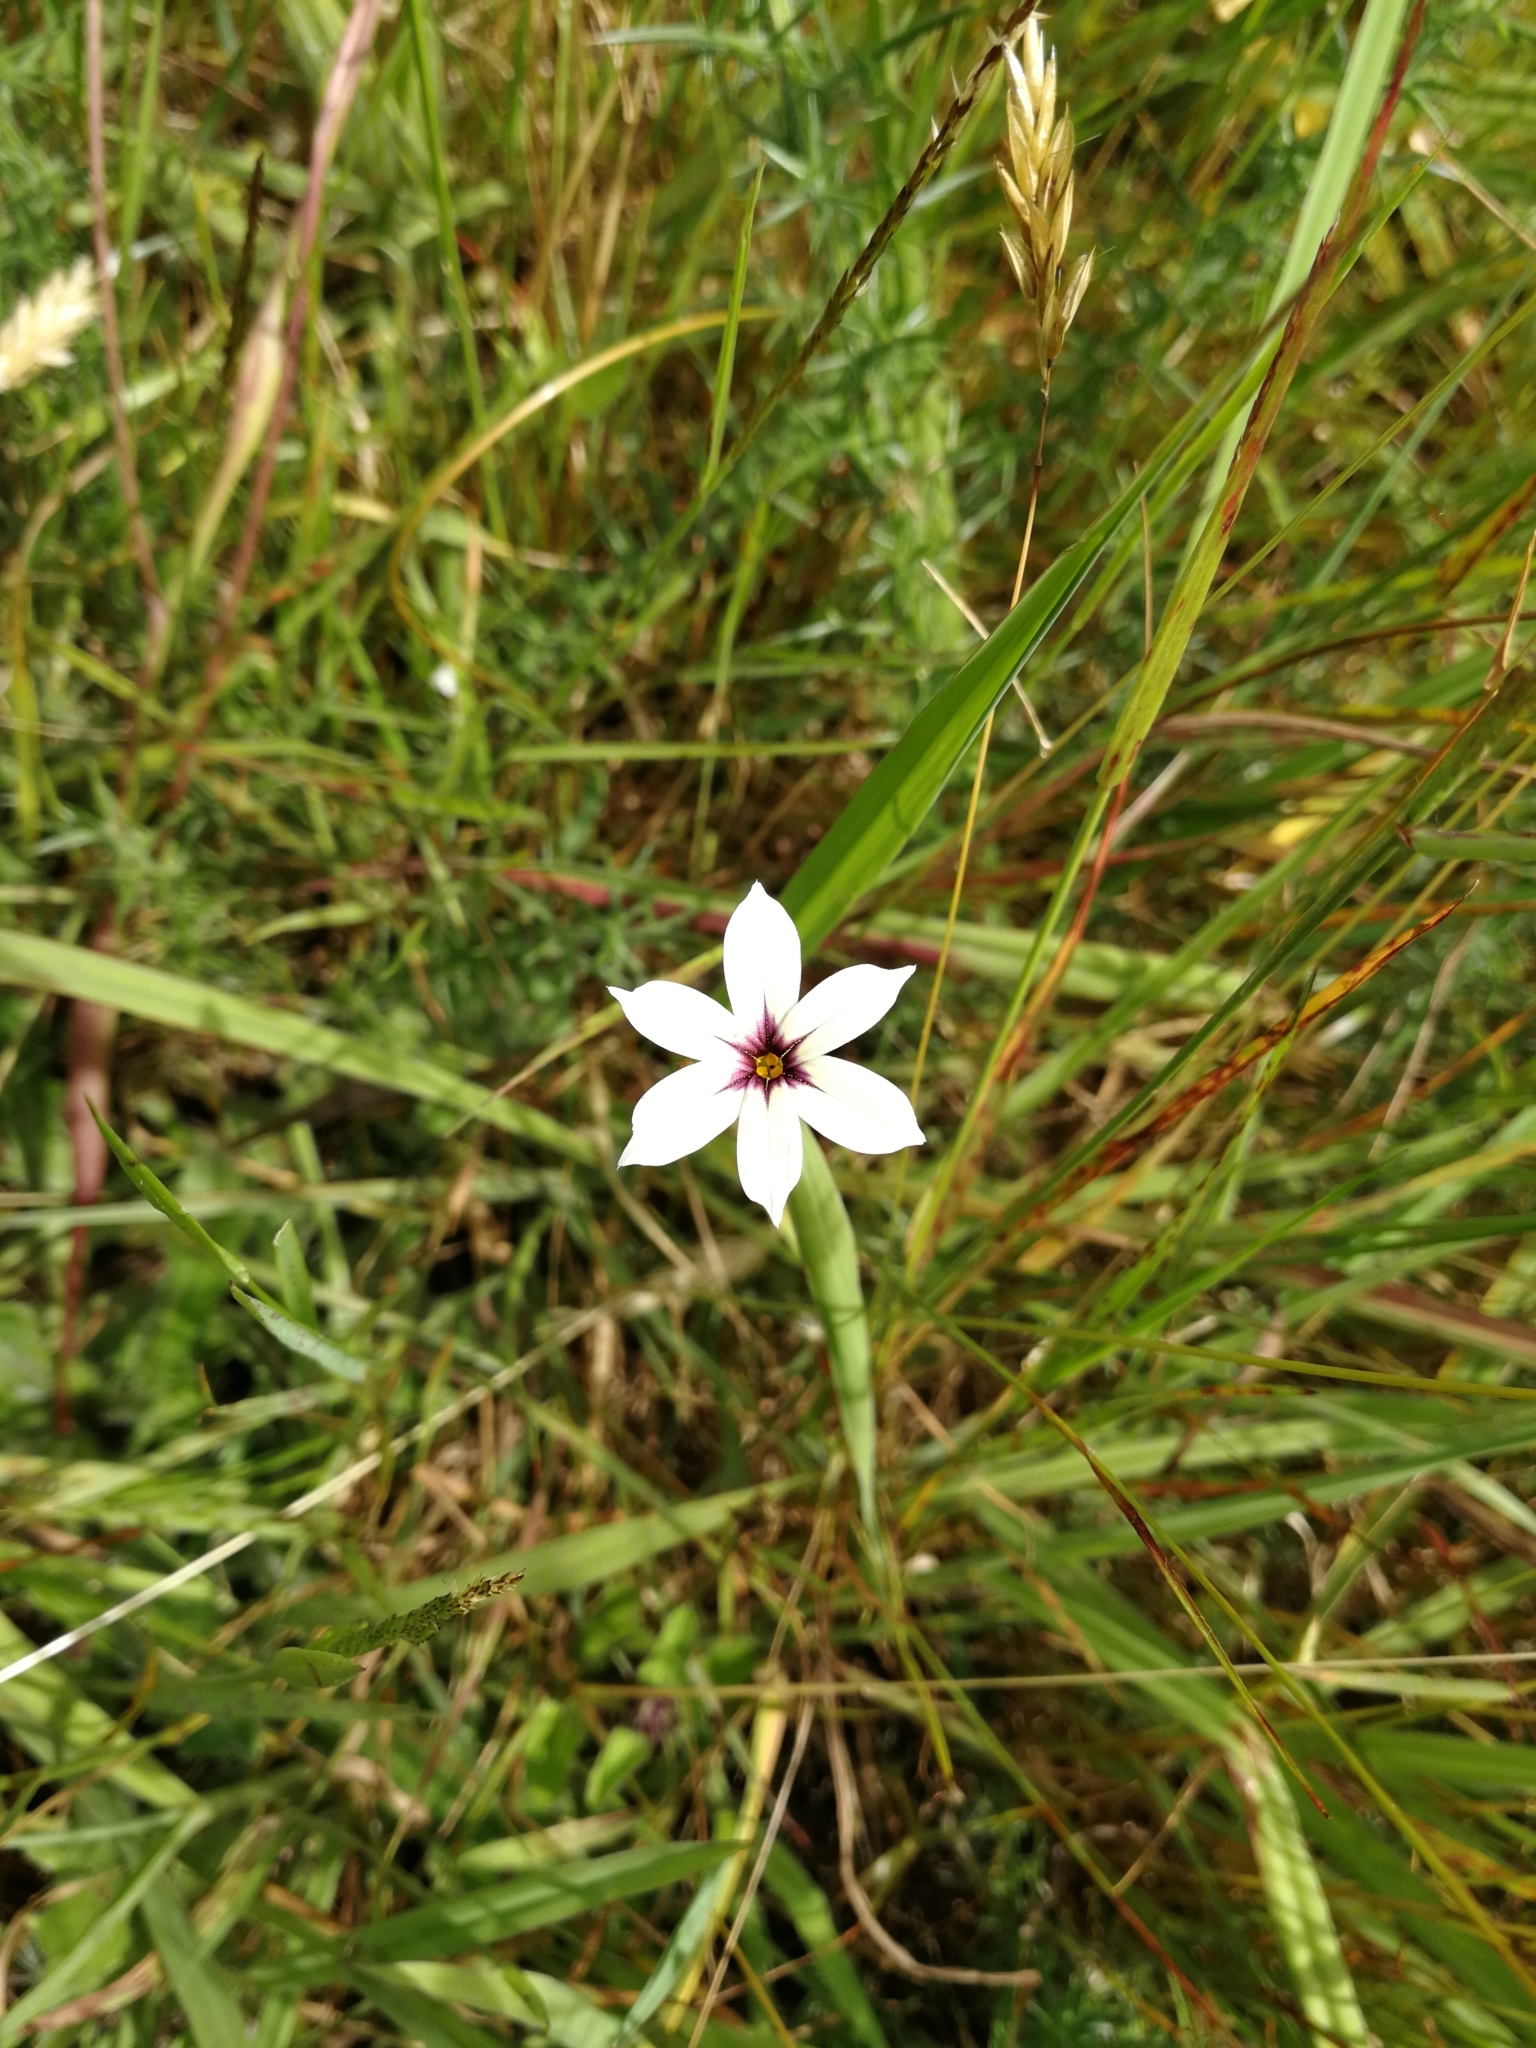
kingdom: Plantae
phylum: Tracheophyta
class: Liliopsida
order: Asparagales
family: Iridaceae
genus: Sisyrinchium
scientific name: Sisyrinchium micranthum
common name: Bermuda pigroot
